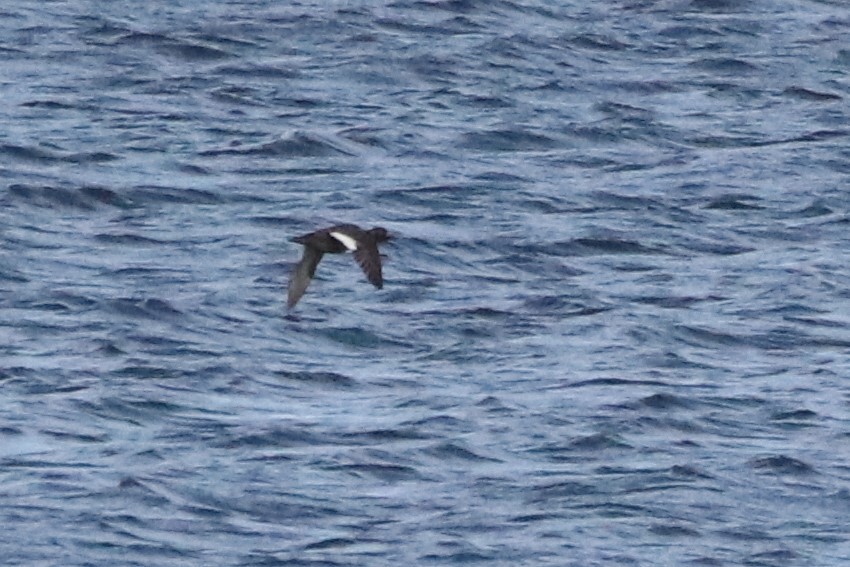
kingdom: Animalia
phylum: Chordata
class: Aves
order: Anseriformes
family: Anatidae
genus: Melanitta
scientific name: Melanitta deglandi
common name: White-winged scoter
